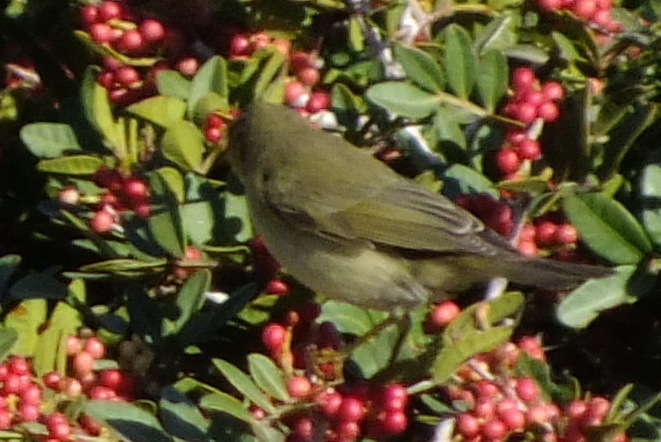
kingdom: Animalia
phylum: Chordata
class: Aves
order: Passeriformes
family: Phylloscopidae
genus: Phylloscopus
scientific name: Phylloscopus trochilus
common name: Willow warbler
